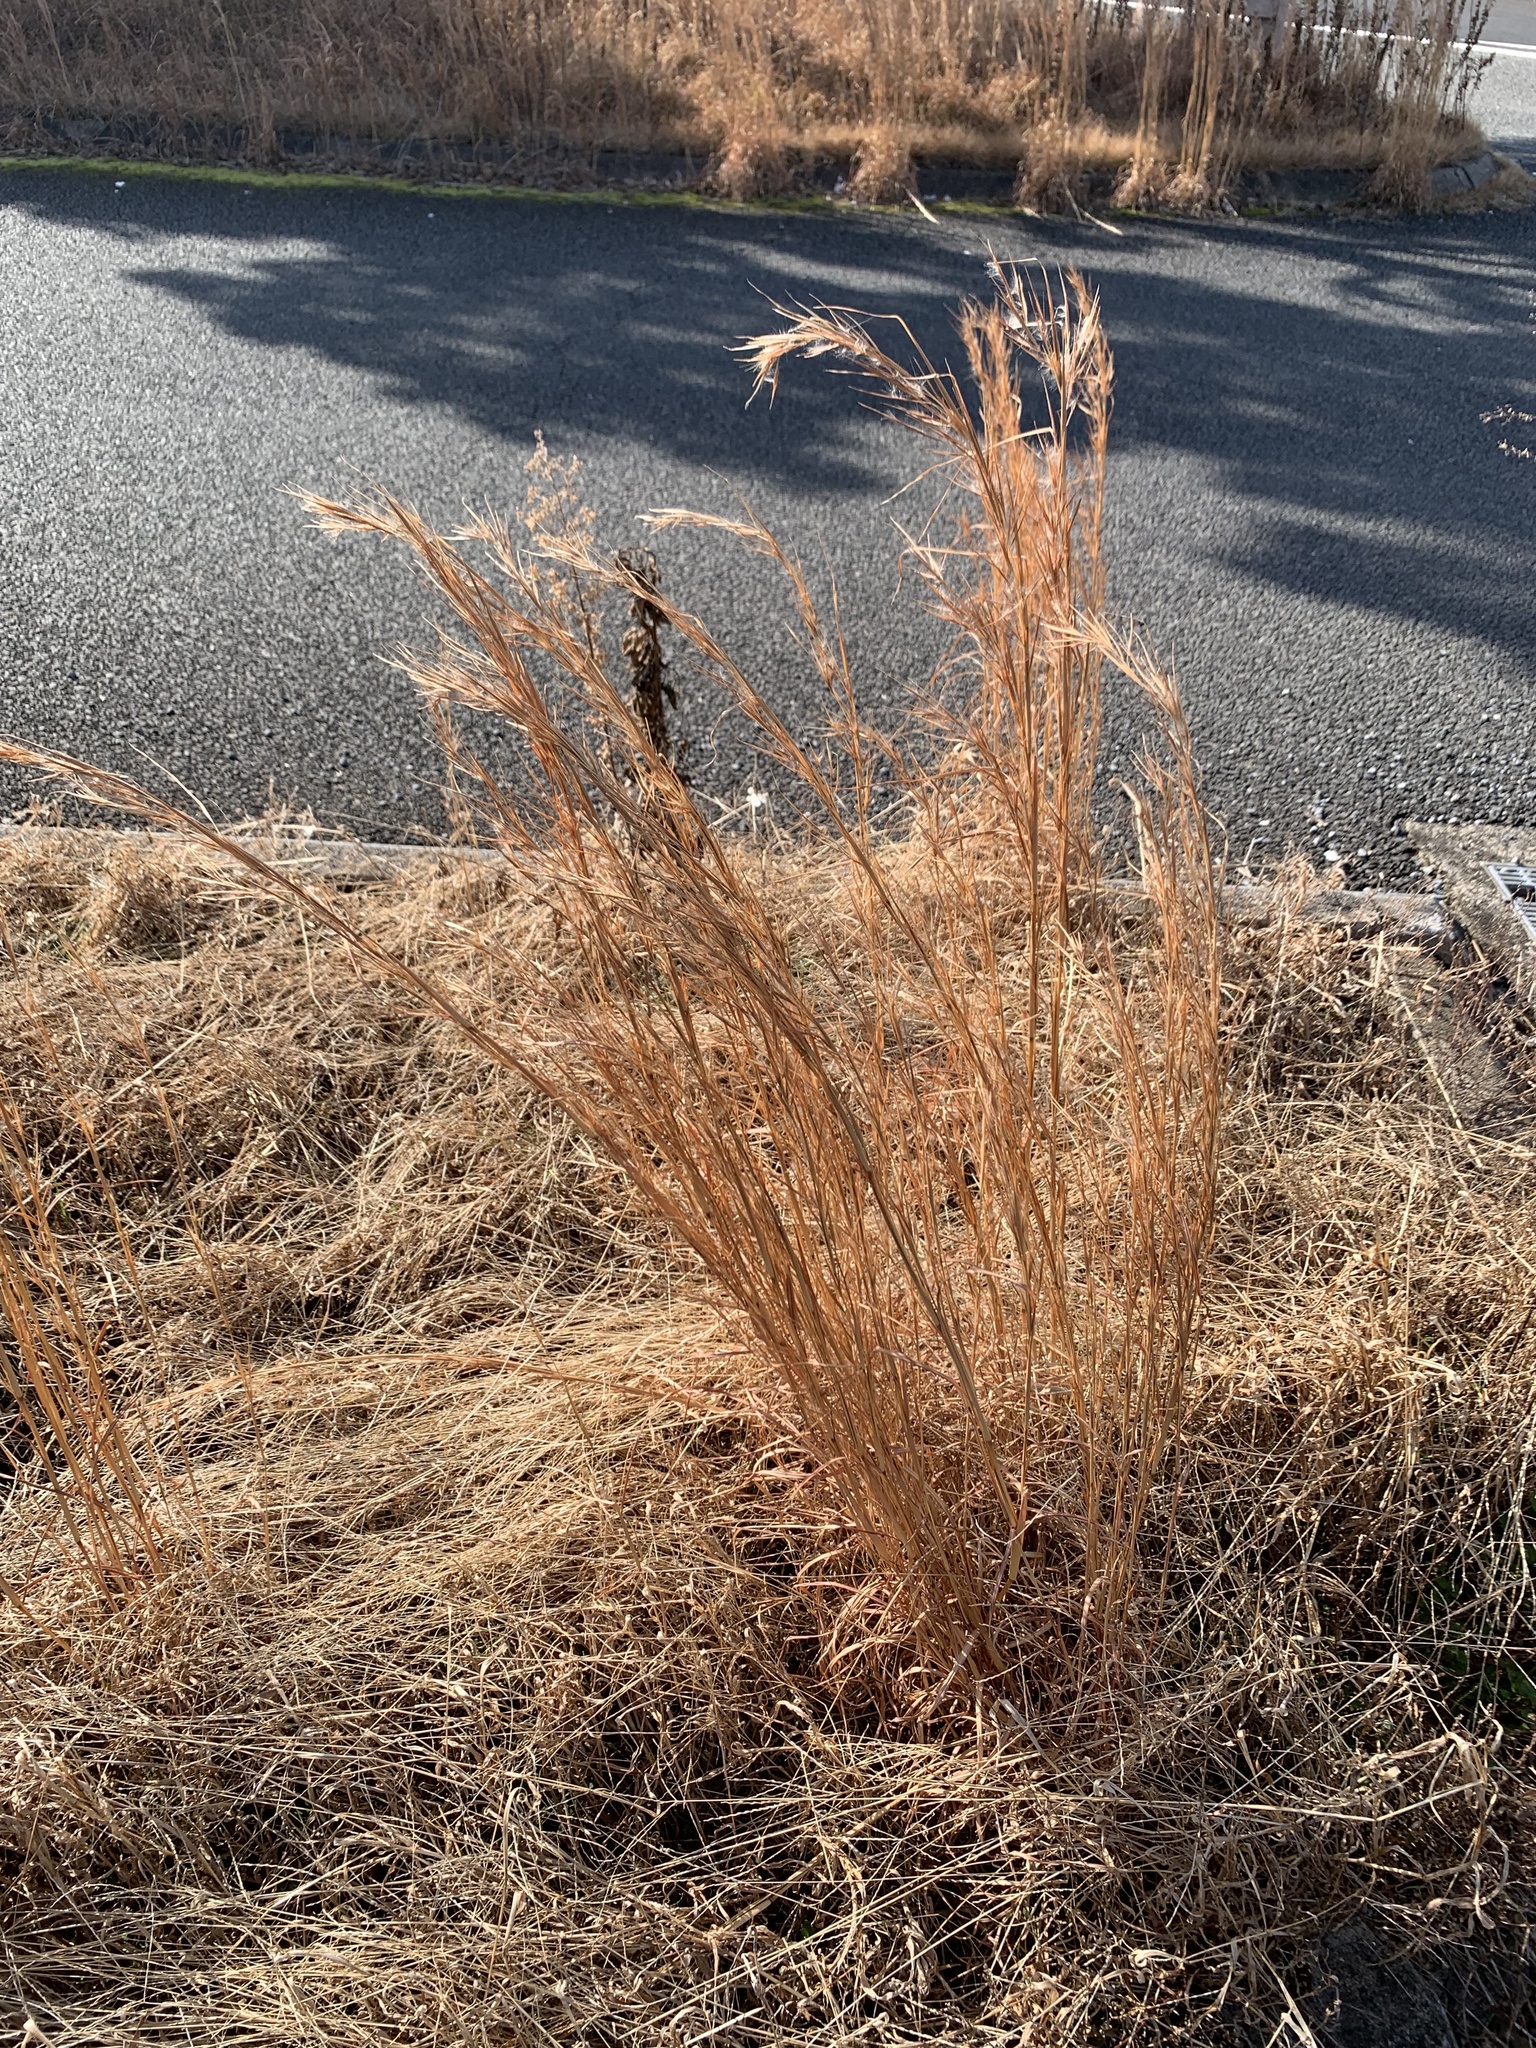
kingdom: Plantae
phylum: Tracheophyta
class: Liliopsida
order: Poales
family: Poaceae
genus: Andropogon
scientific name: Andropogon virginicus
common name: Broomsedge bluestem
